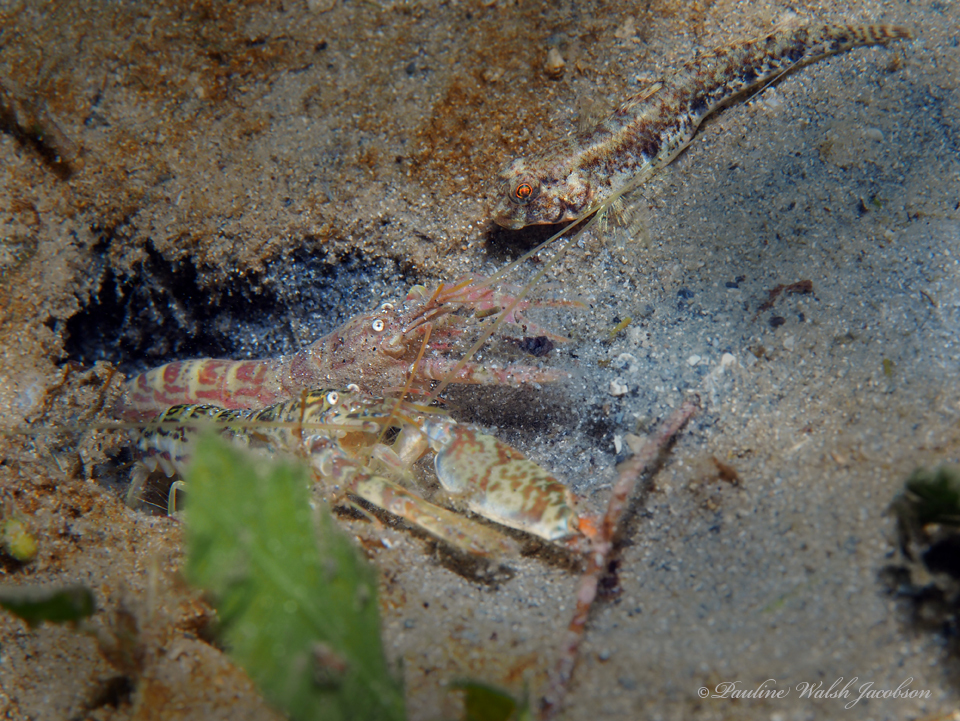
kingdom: Animalia
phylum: Arthropoda
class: Malacostraca
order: Decapoda
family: Alpheidae
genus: Alpheus
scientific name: Alpheus floridanus
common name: Sand snapping shrimp
